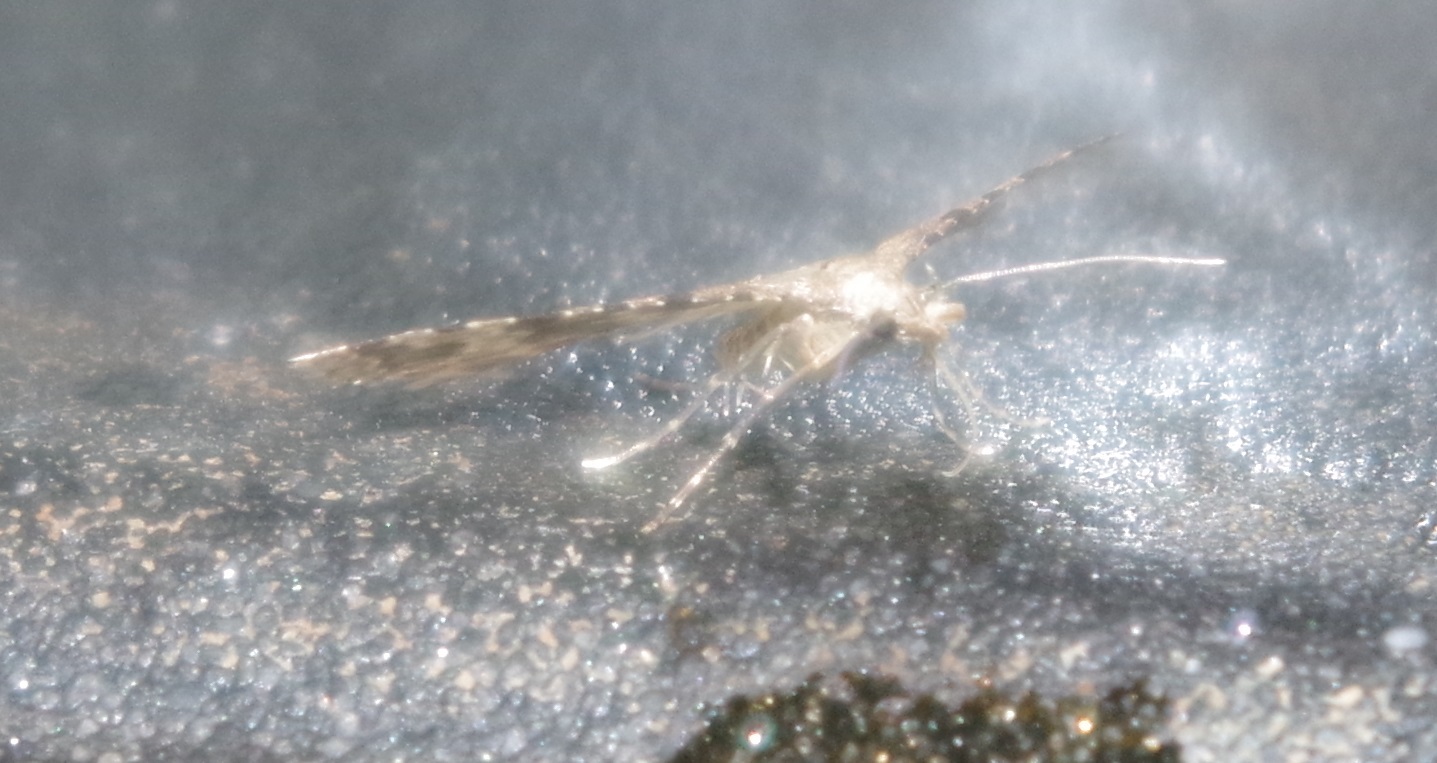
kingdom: Animalia
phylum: Arthropoda
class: Insecta
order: Lepidoptera
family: Alucitidae
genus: Alucita
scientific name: Alucita hexadactyla
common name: Twenty-plume moth
